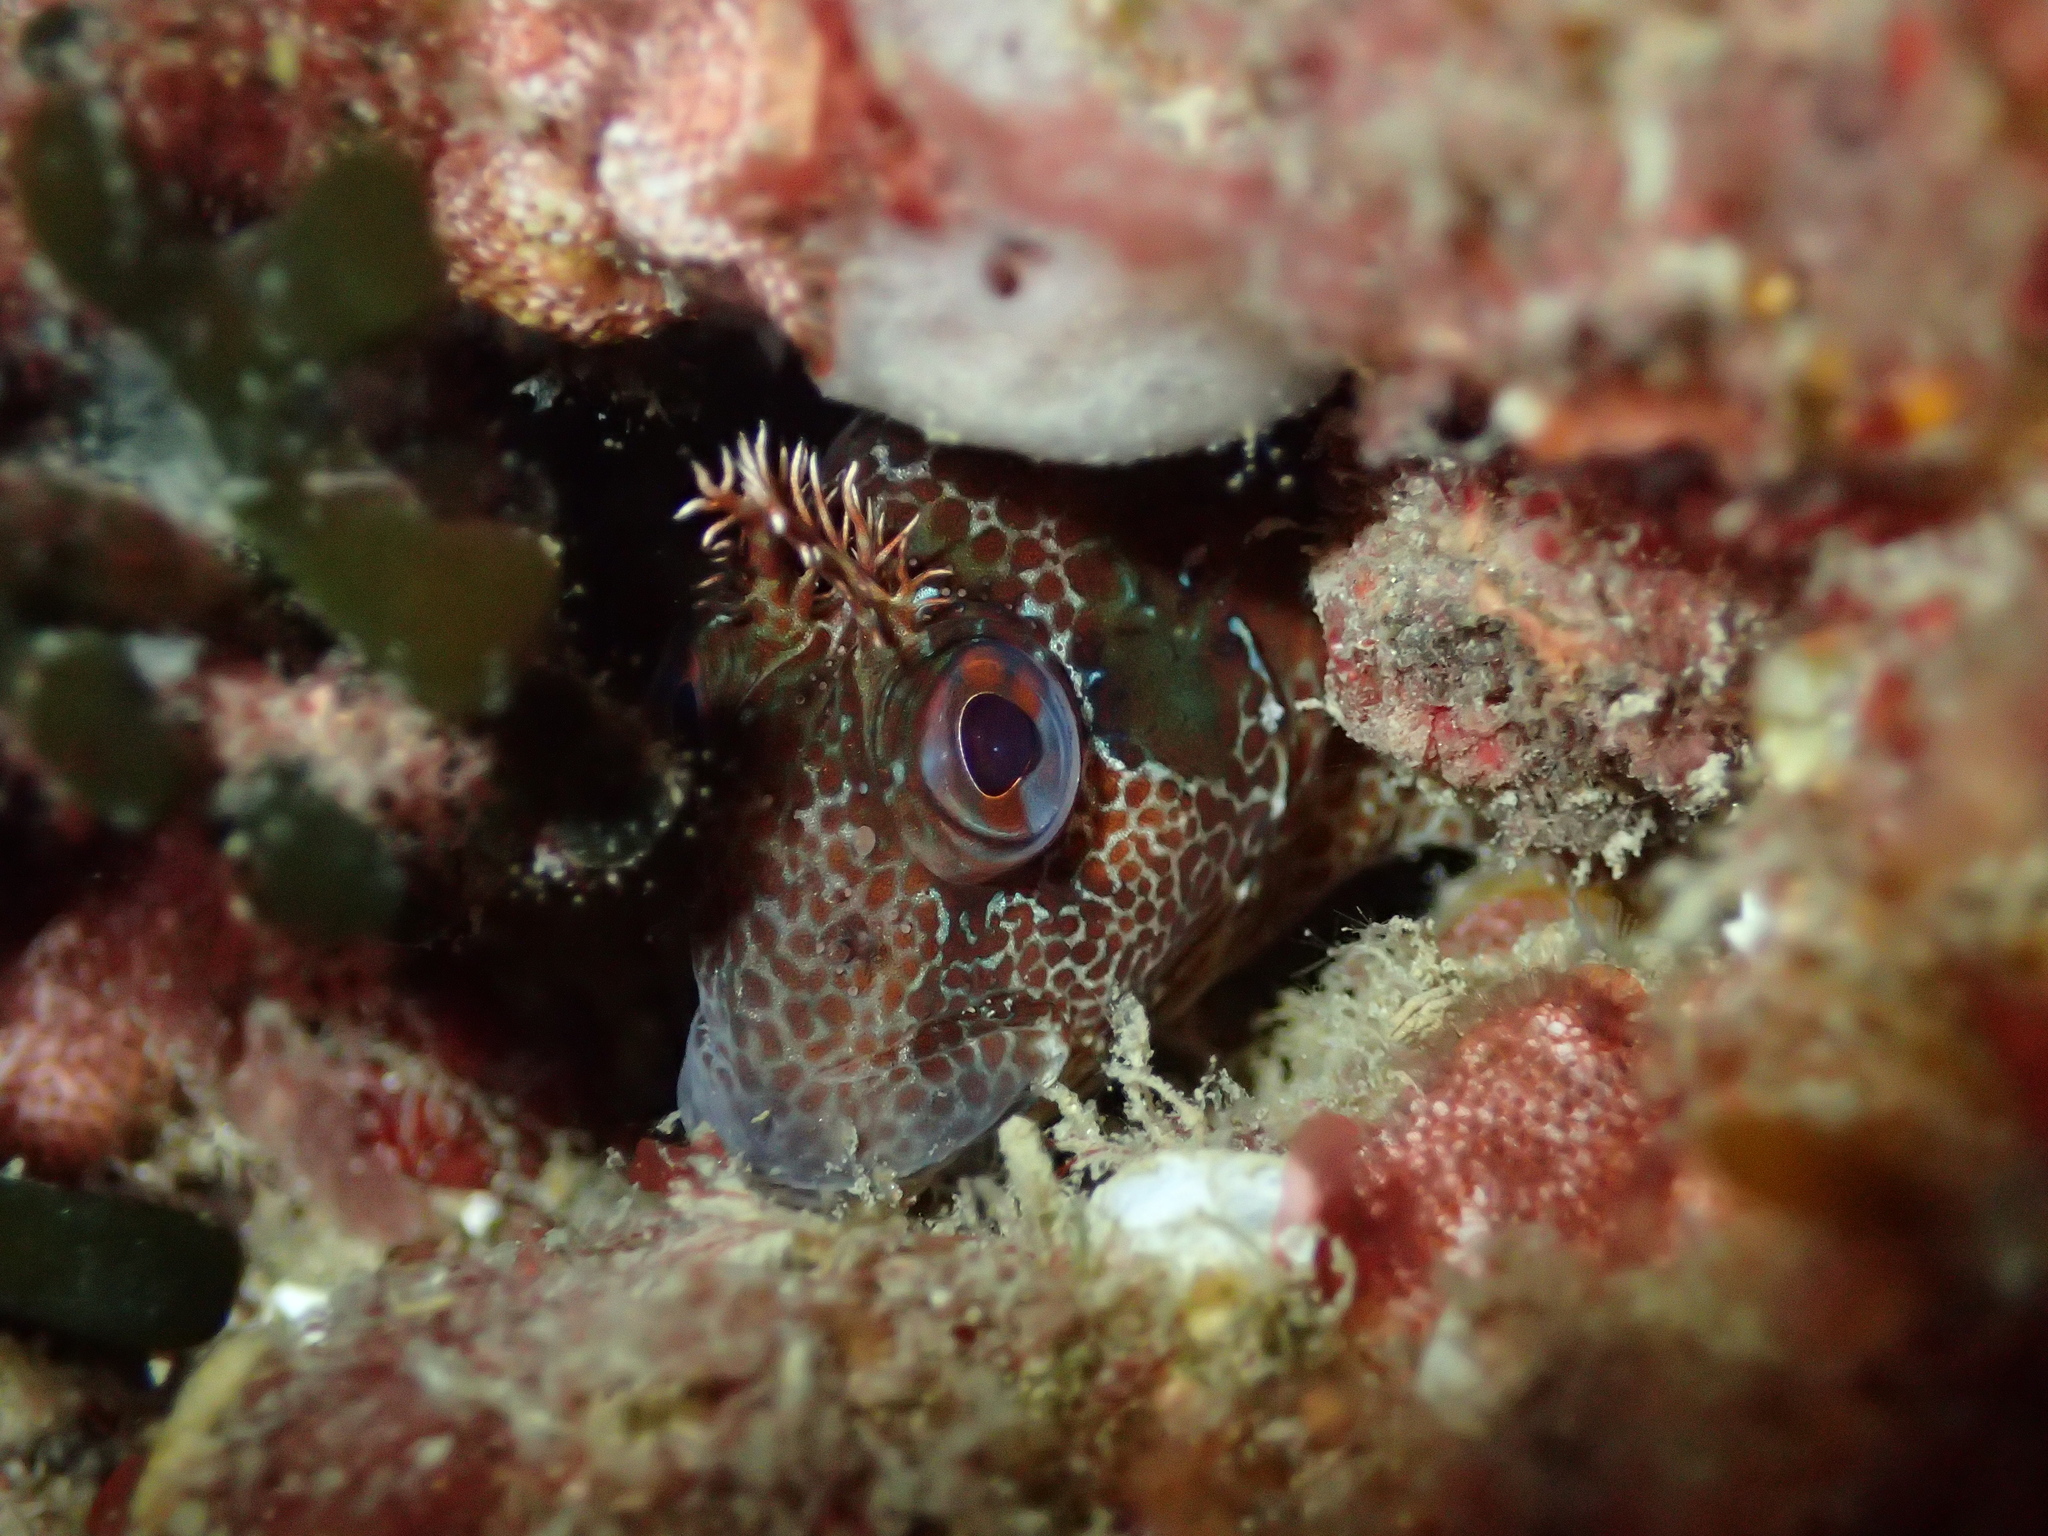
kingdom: Animalia
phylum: Chordata
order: Perciformes
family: Blenniidae
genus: Parablennius
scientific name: Parablennius gattorugine
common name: Tompot blenny
